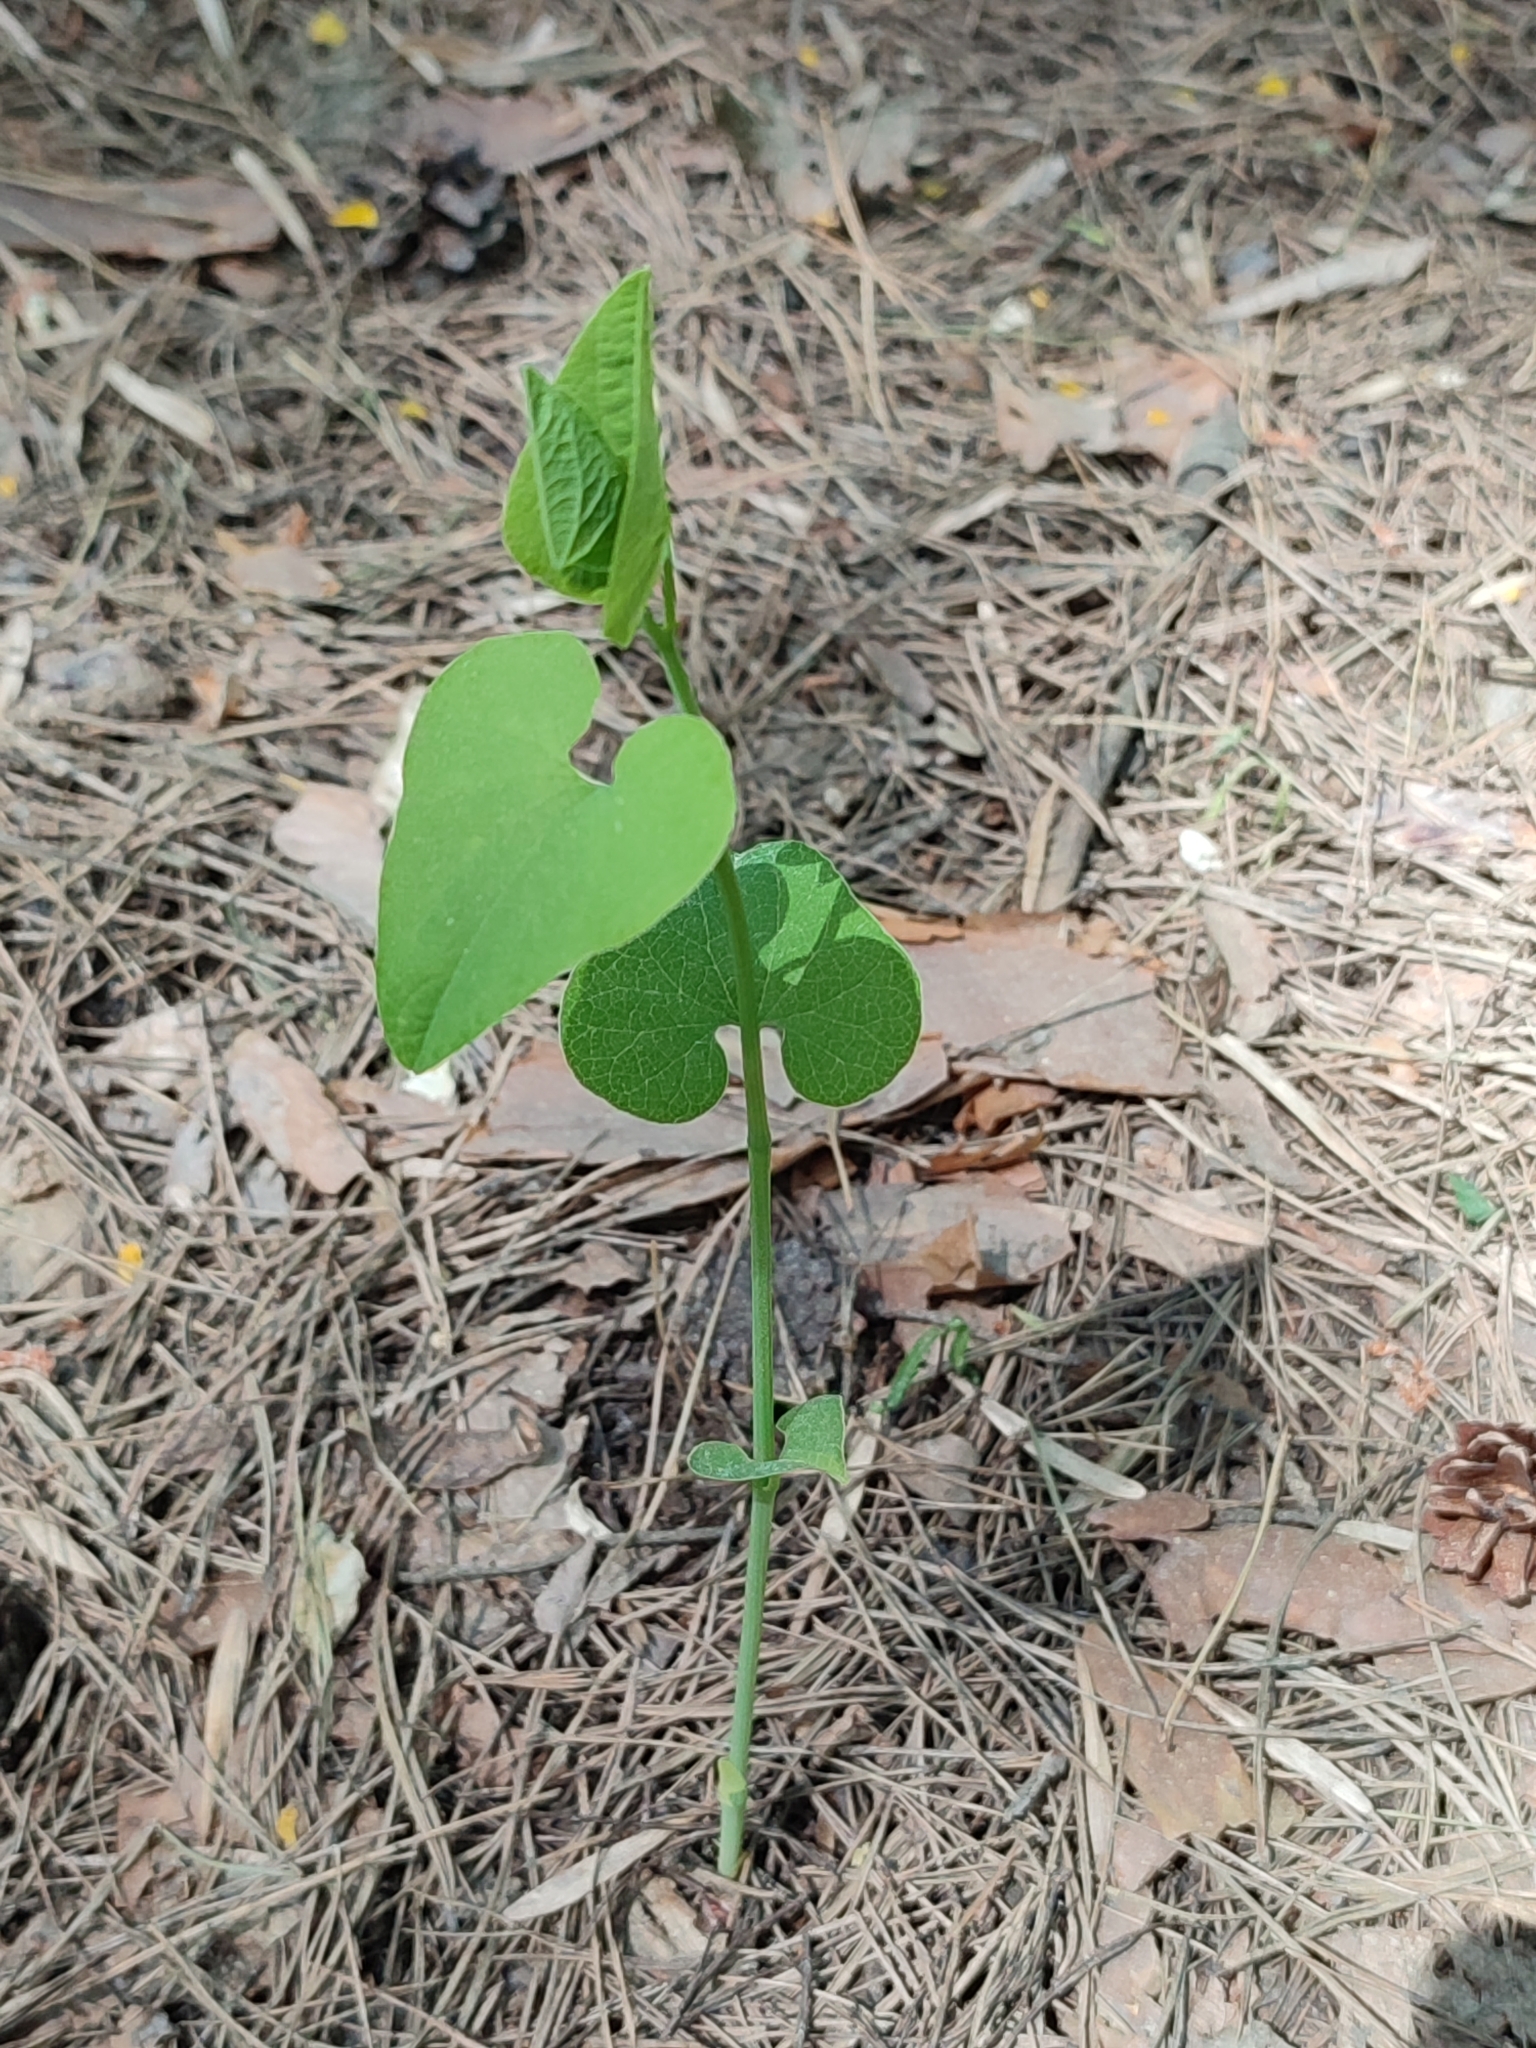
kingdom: Plantae
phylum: Tracheophyta
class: Magnoliopsida
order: Piperales
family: Aristolochiaceae
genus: Aristolochia
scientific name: Aristolochia clematitis
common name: Birthwort
